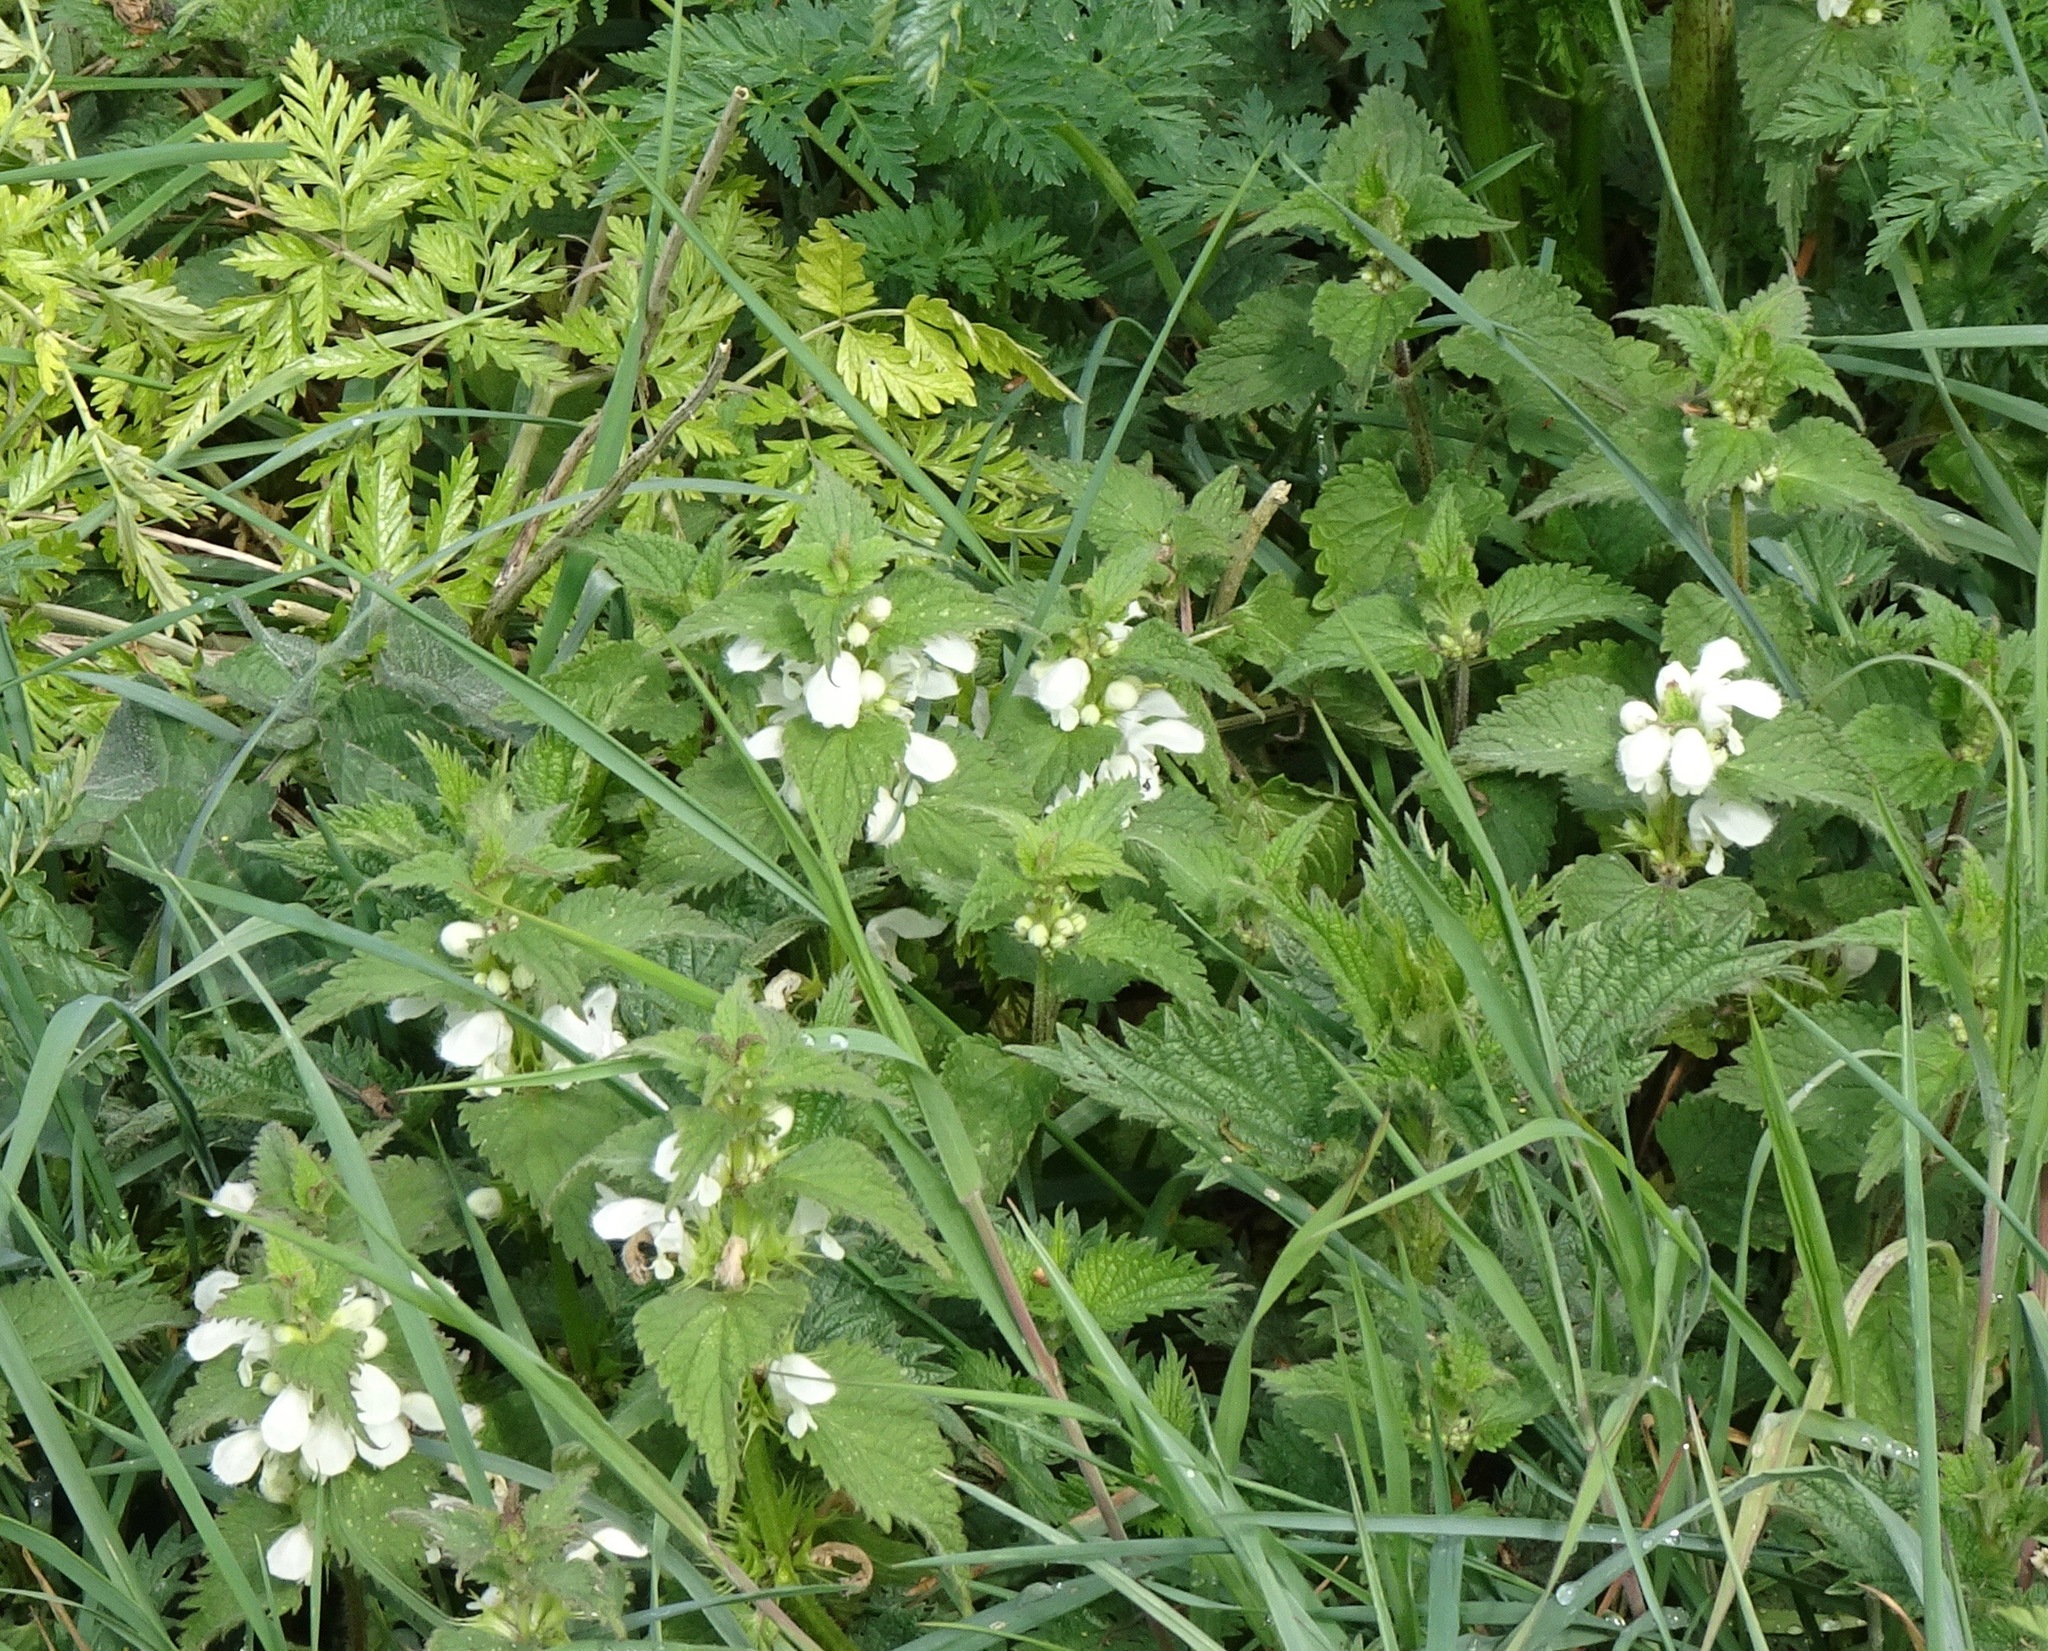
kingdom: Plantae
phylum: Tracheophyta
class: Magnoliopsida
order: Lamiales
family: Lamiaceae
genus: Lamium
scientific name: Lamium album
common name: White dead-nettle
